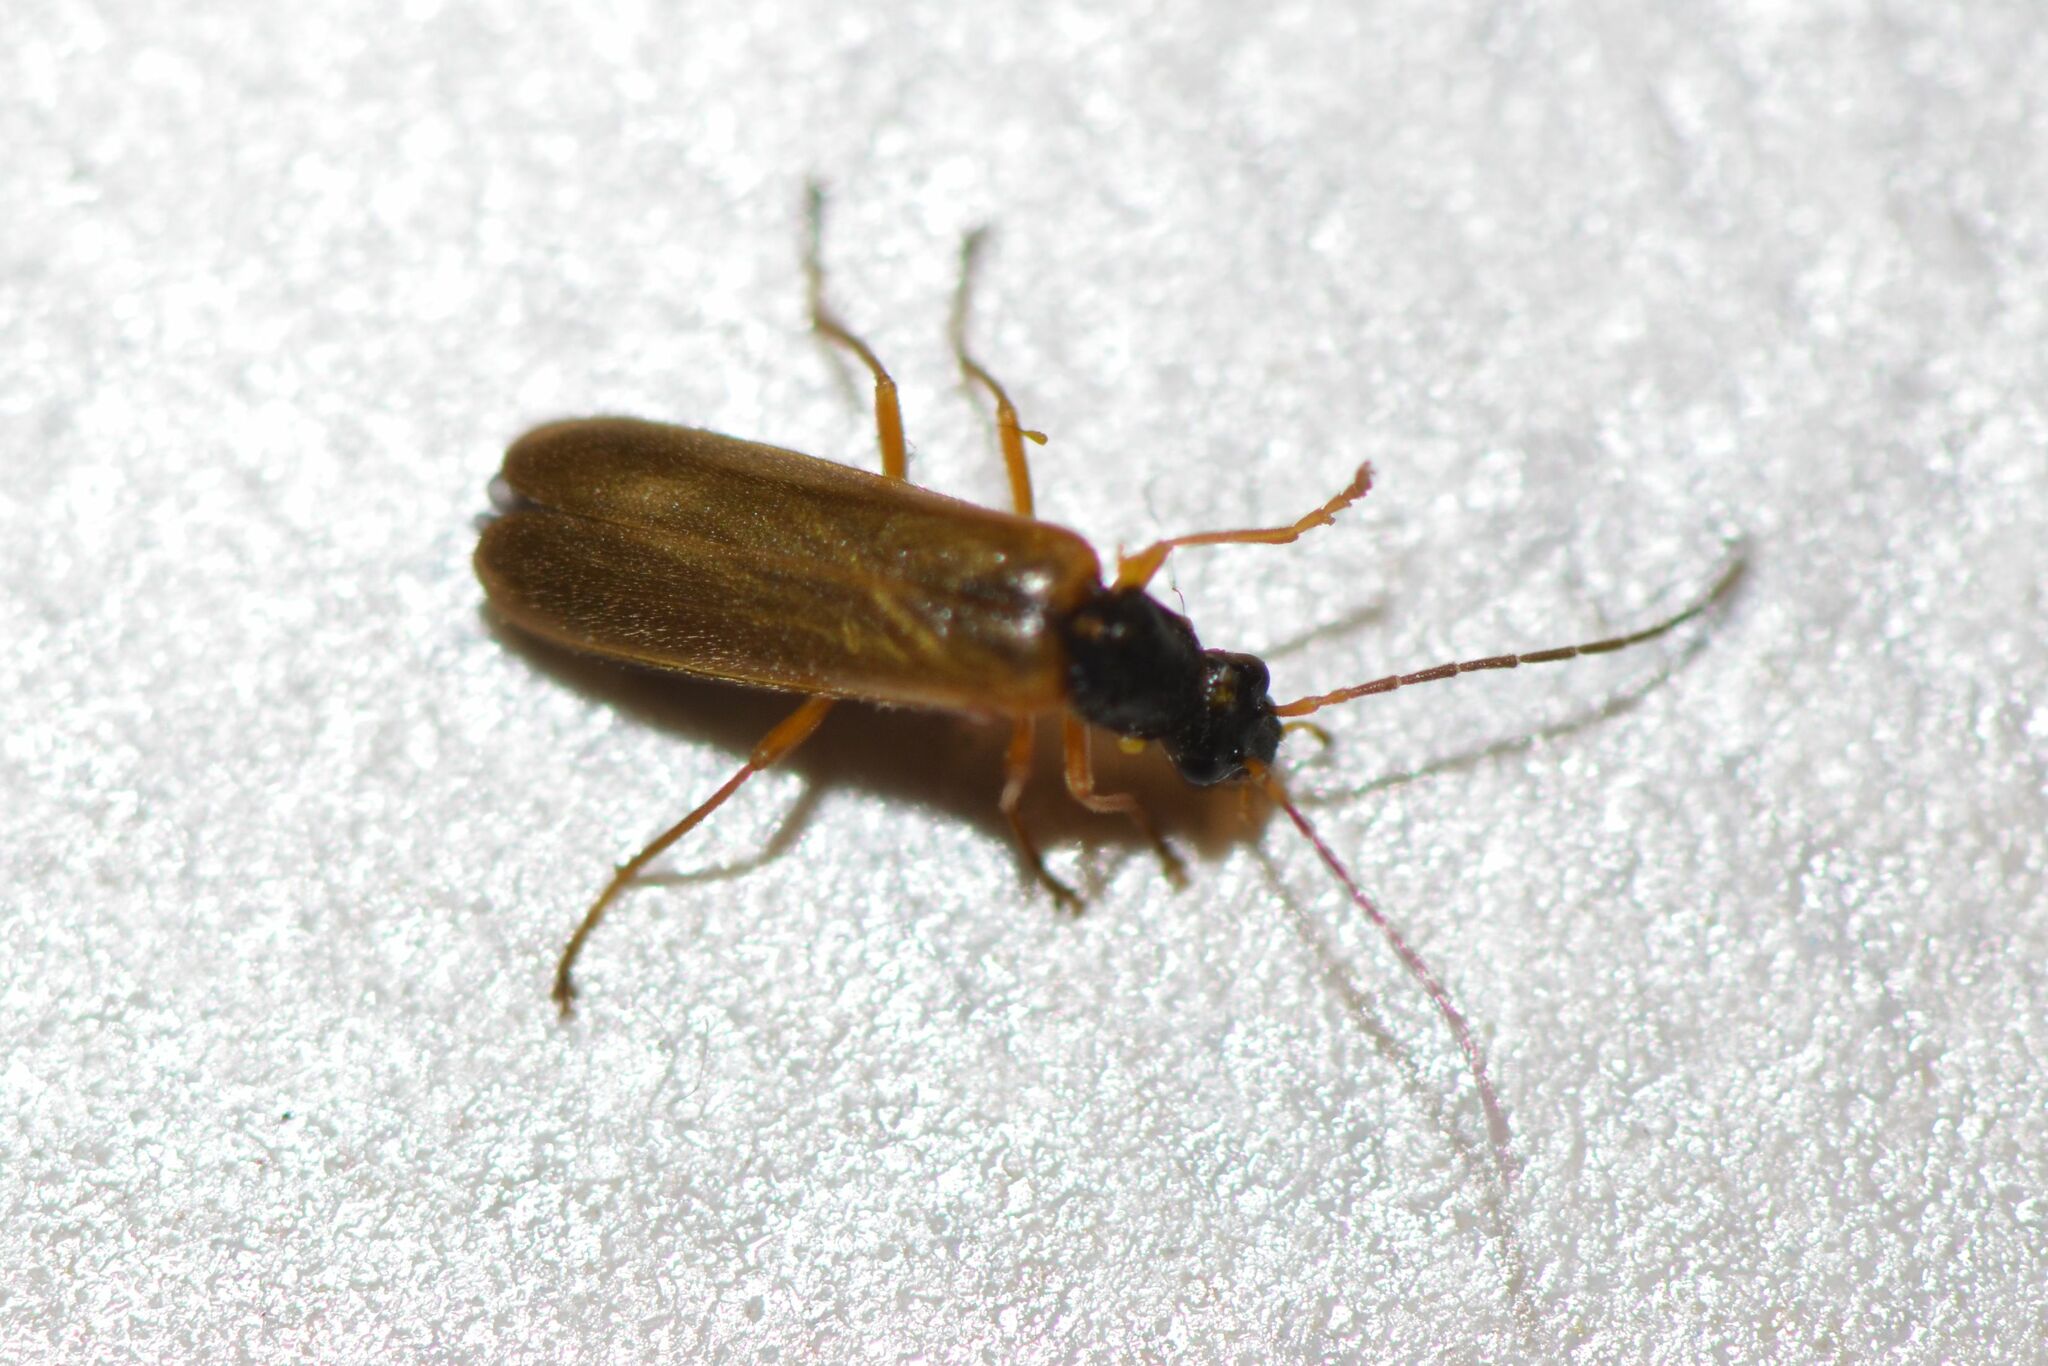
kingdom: Animalia
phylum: Arthropoda
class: Insecta
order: Coleoptera
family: Cantharidae
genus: Rhagonycha
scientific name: Rhagonycha lignosa
